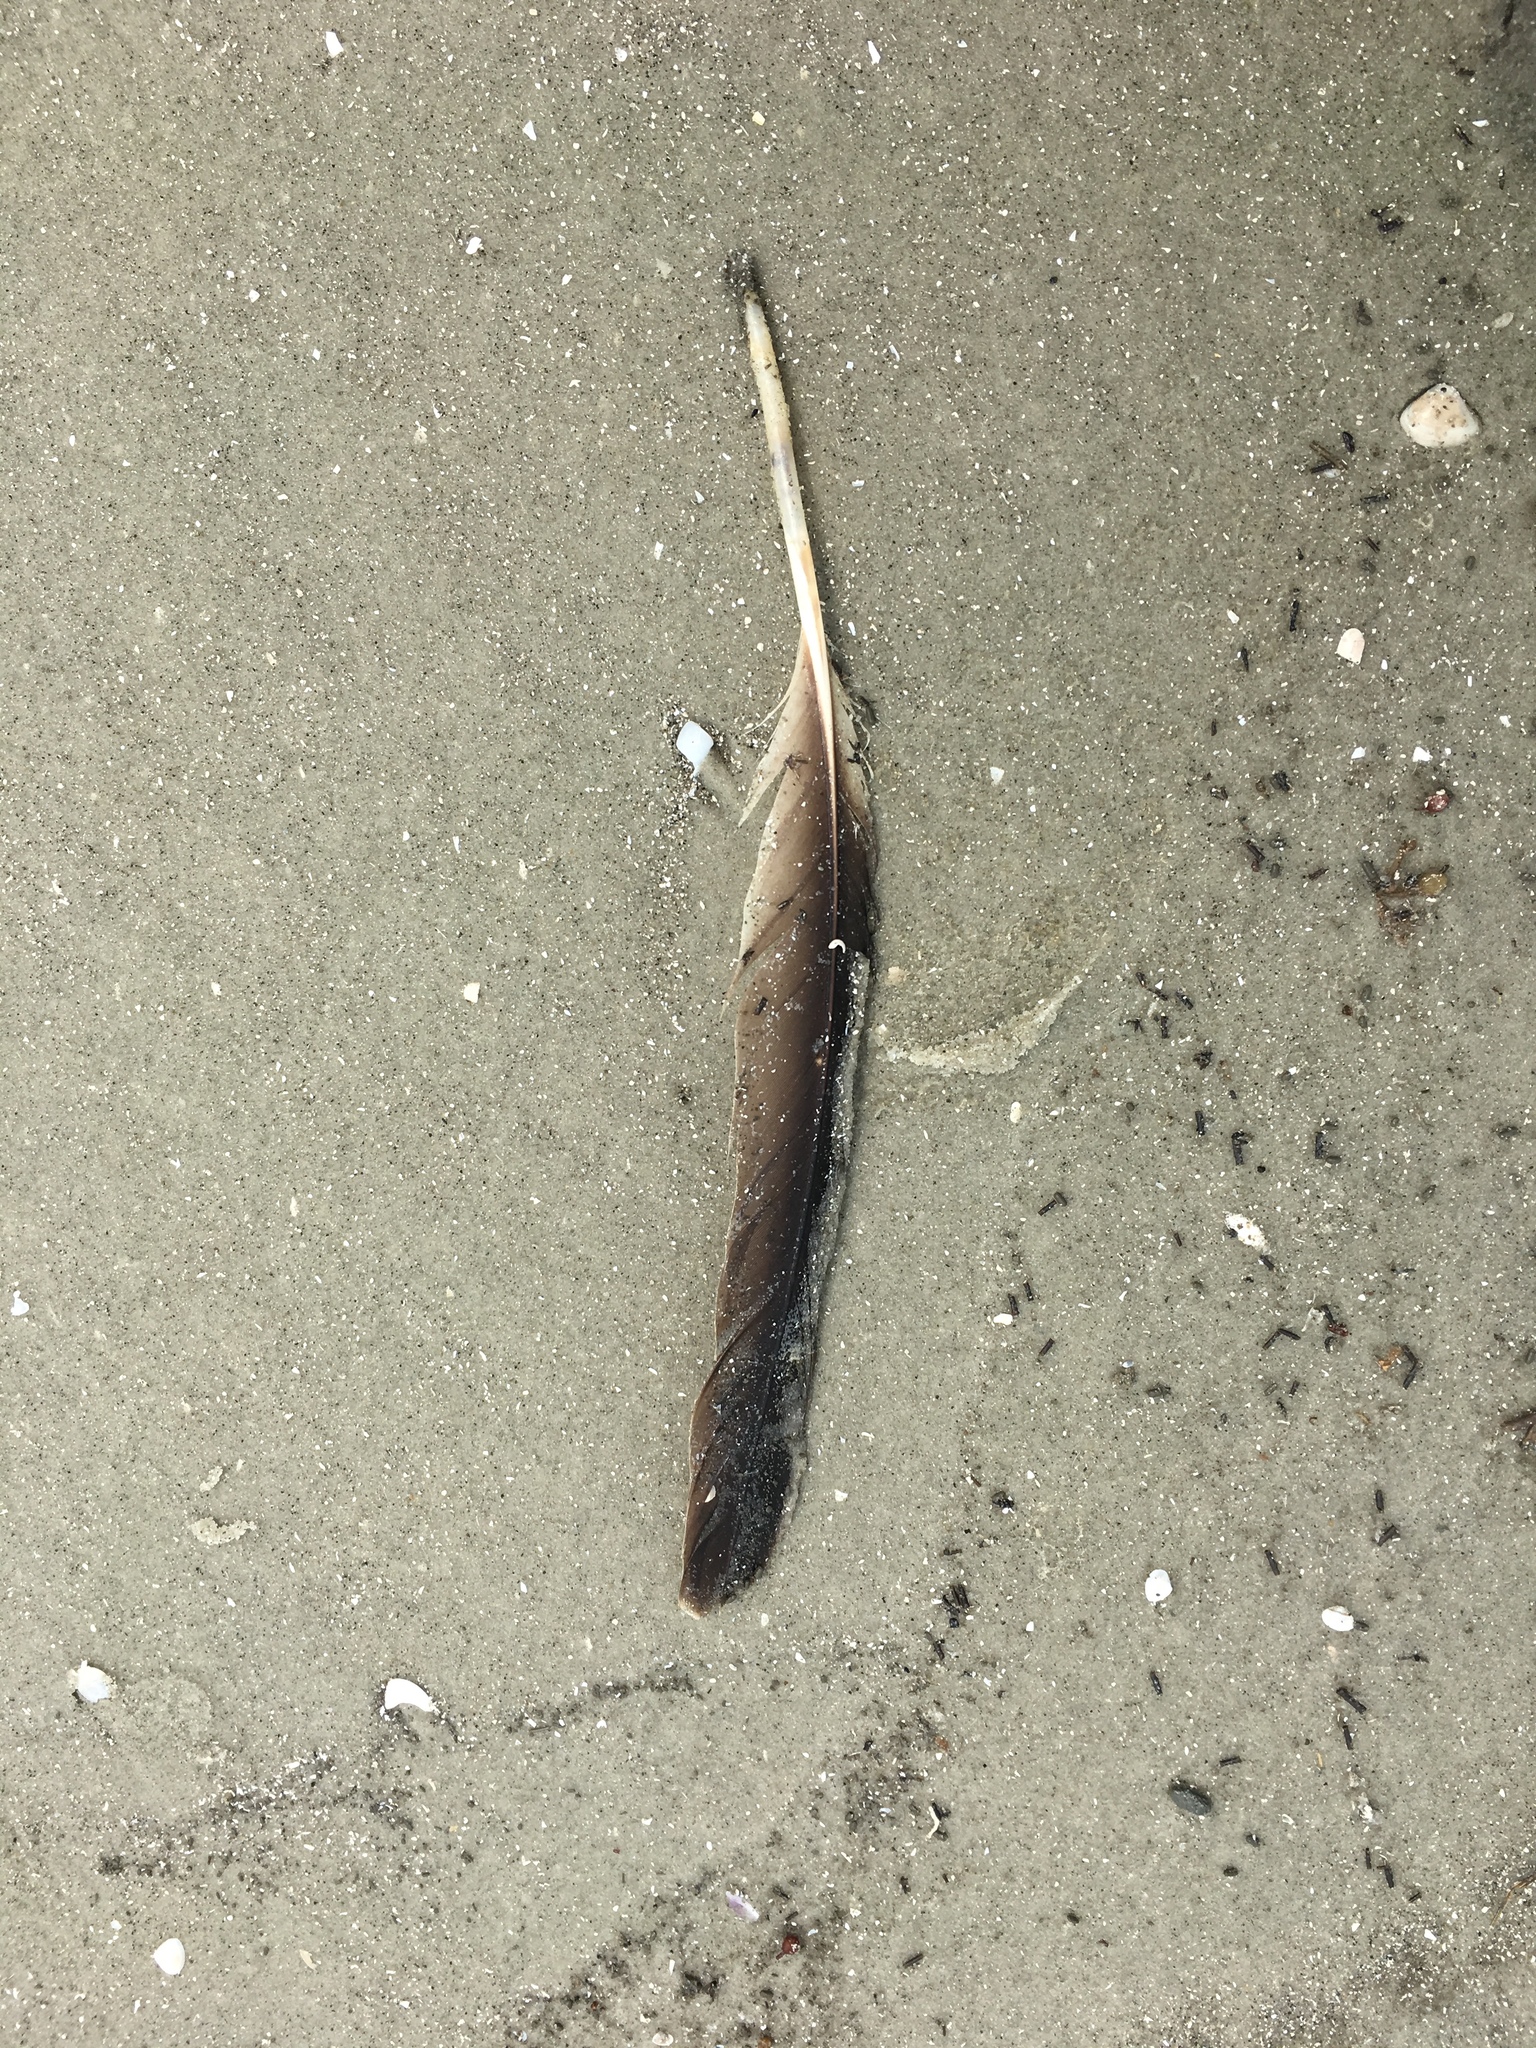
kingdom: Animalia
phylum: Chordata
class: Aves
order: Pelecaniformes
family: Pelecanidae
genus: Pelecanus
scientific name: Pelecanus occidentalis
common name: Brown pelican
